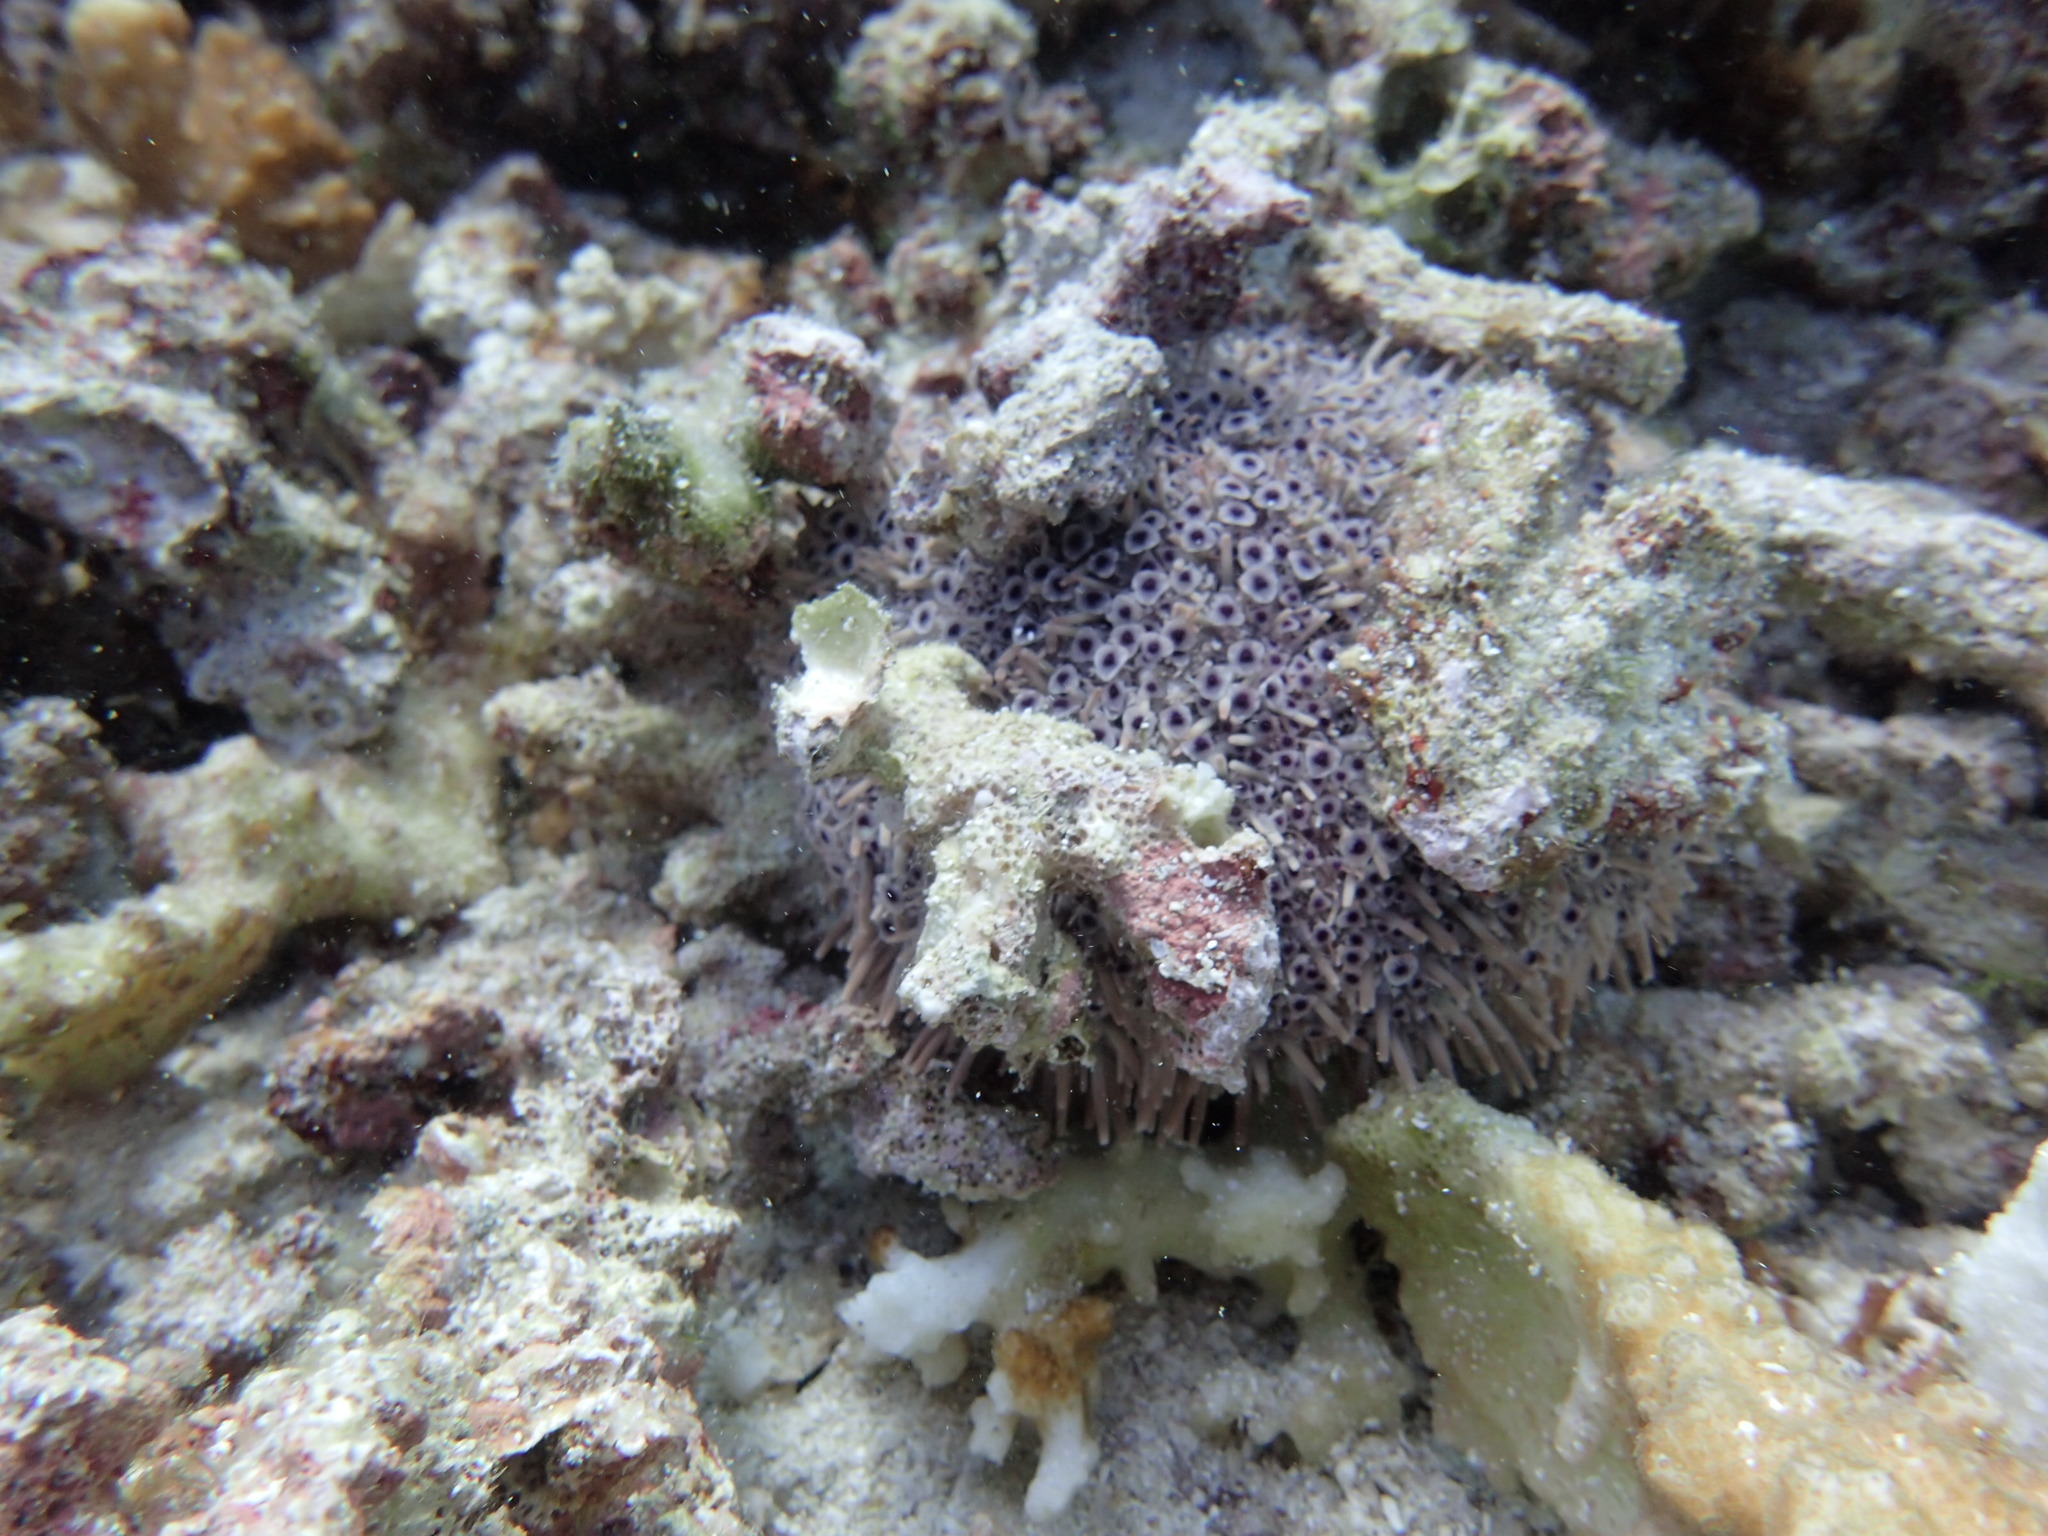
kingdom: Animalia
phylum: Echinodermata
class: Echinoidea
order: Camarodonta
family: Toxopneustidae
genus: Toxopneustes
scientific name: Toxopneustes roseus
